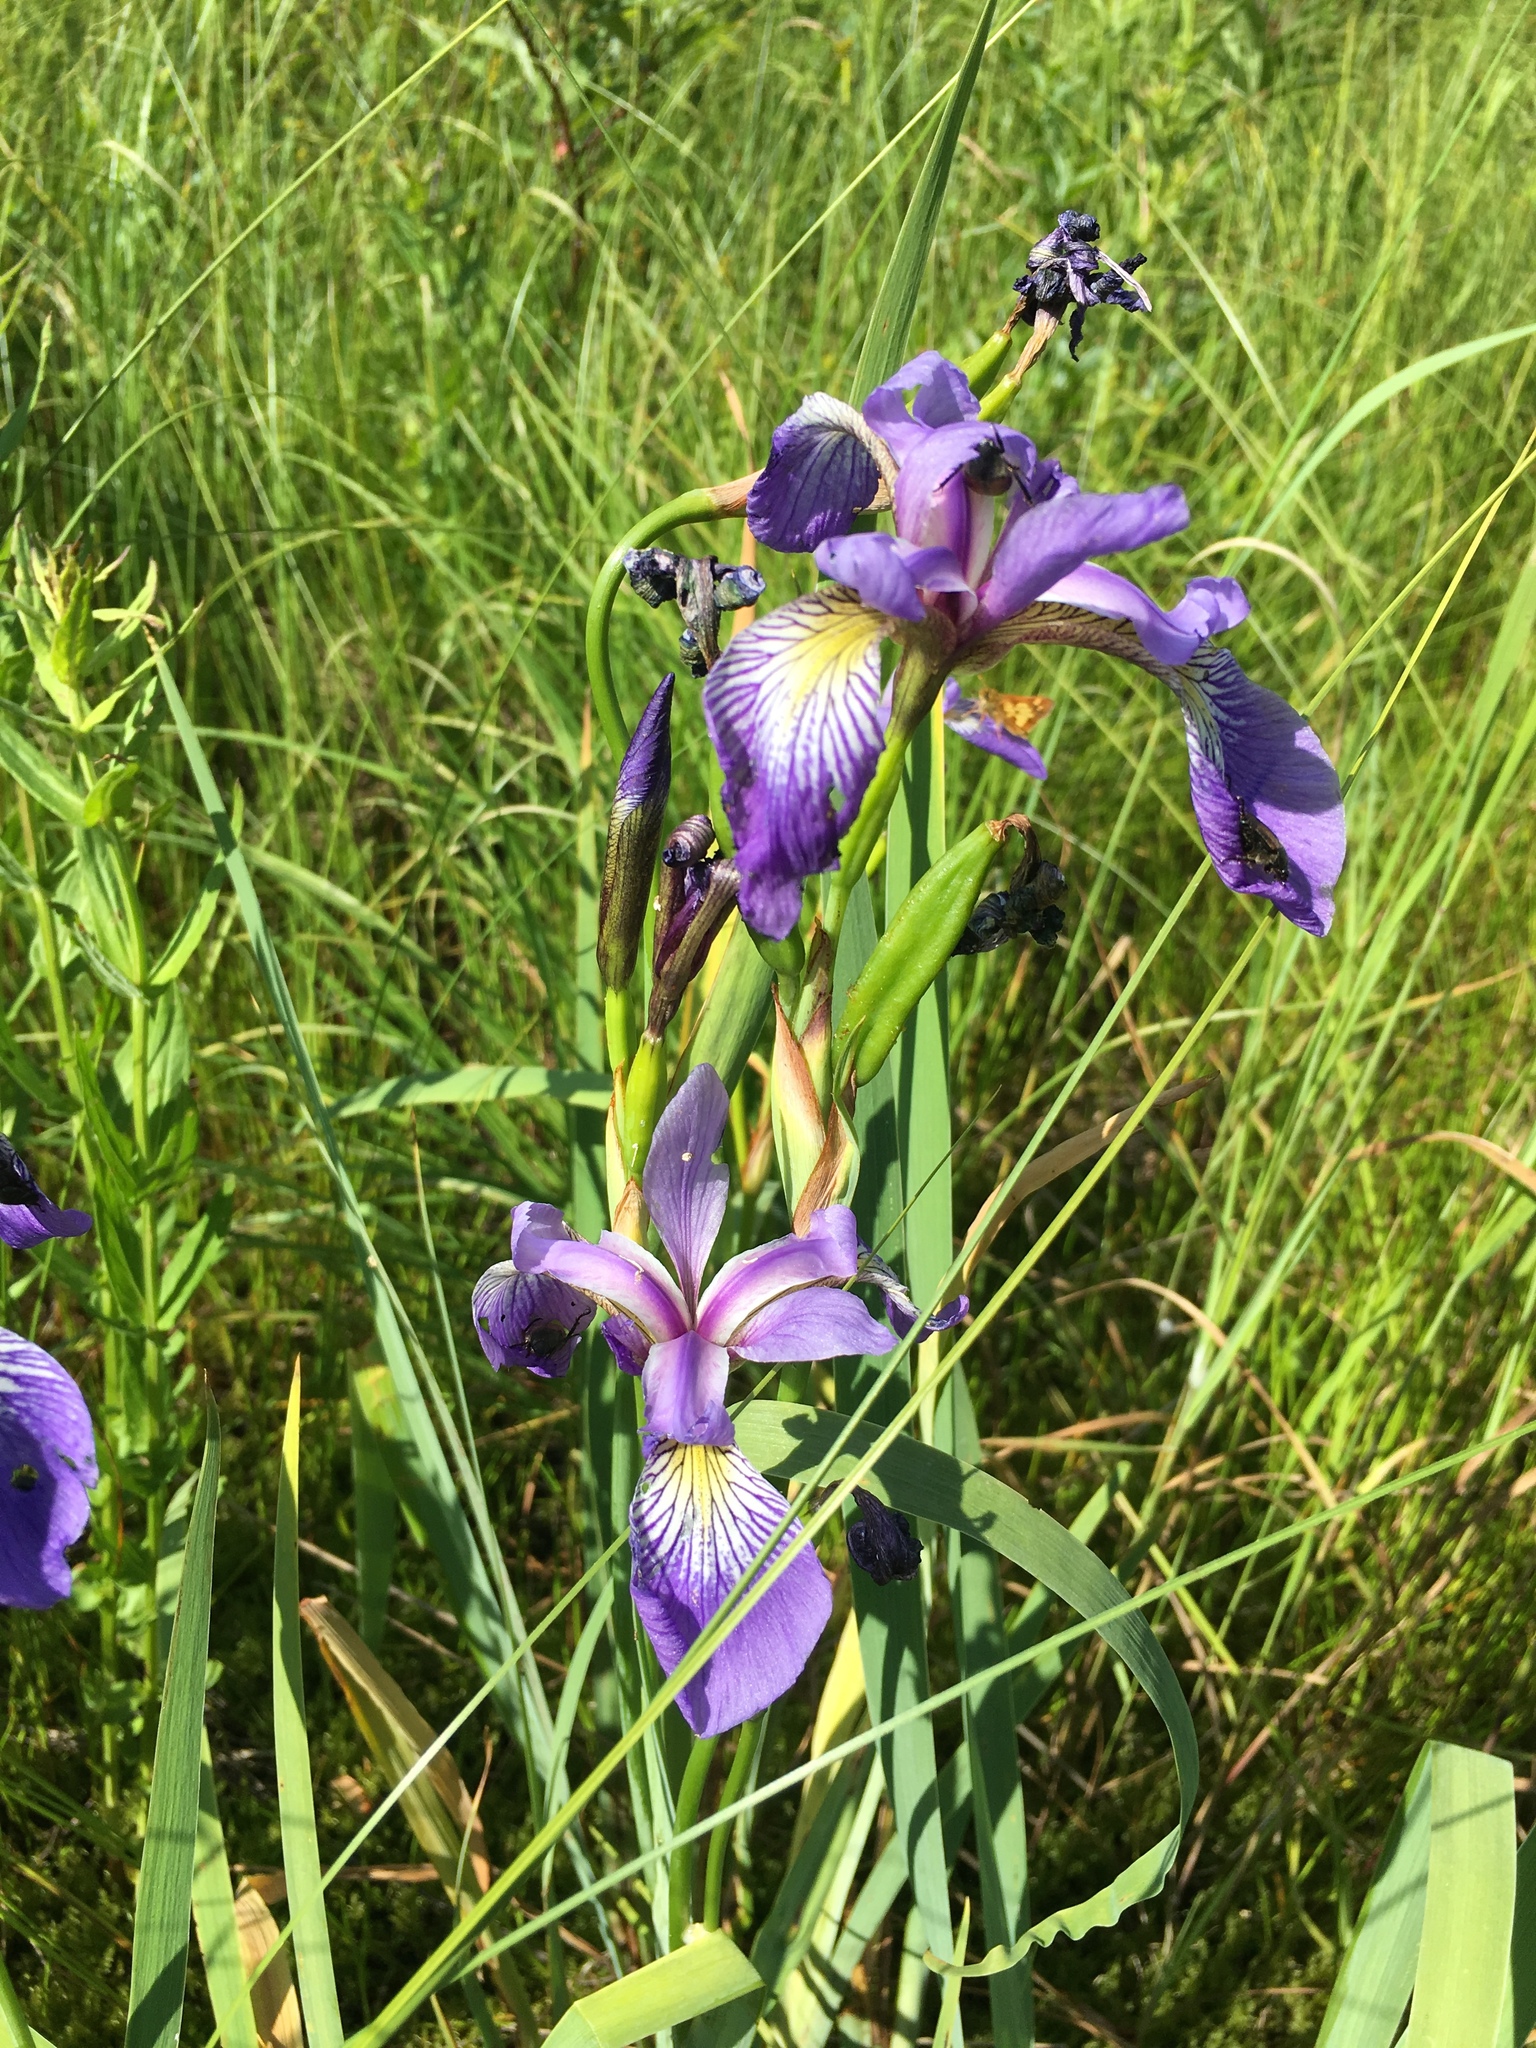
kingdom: Plantae
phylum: Tracheophyta
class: Liliopsida
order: Asparagales
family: Iridaceae
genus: Iris
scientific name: Iris versicolor
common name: Purple iris
